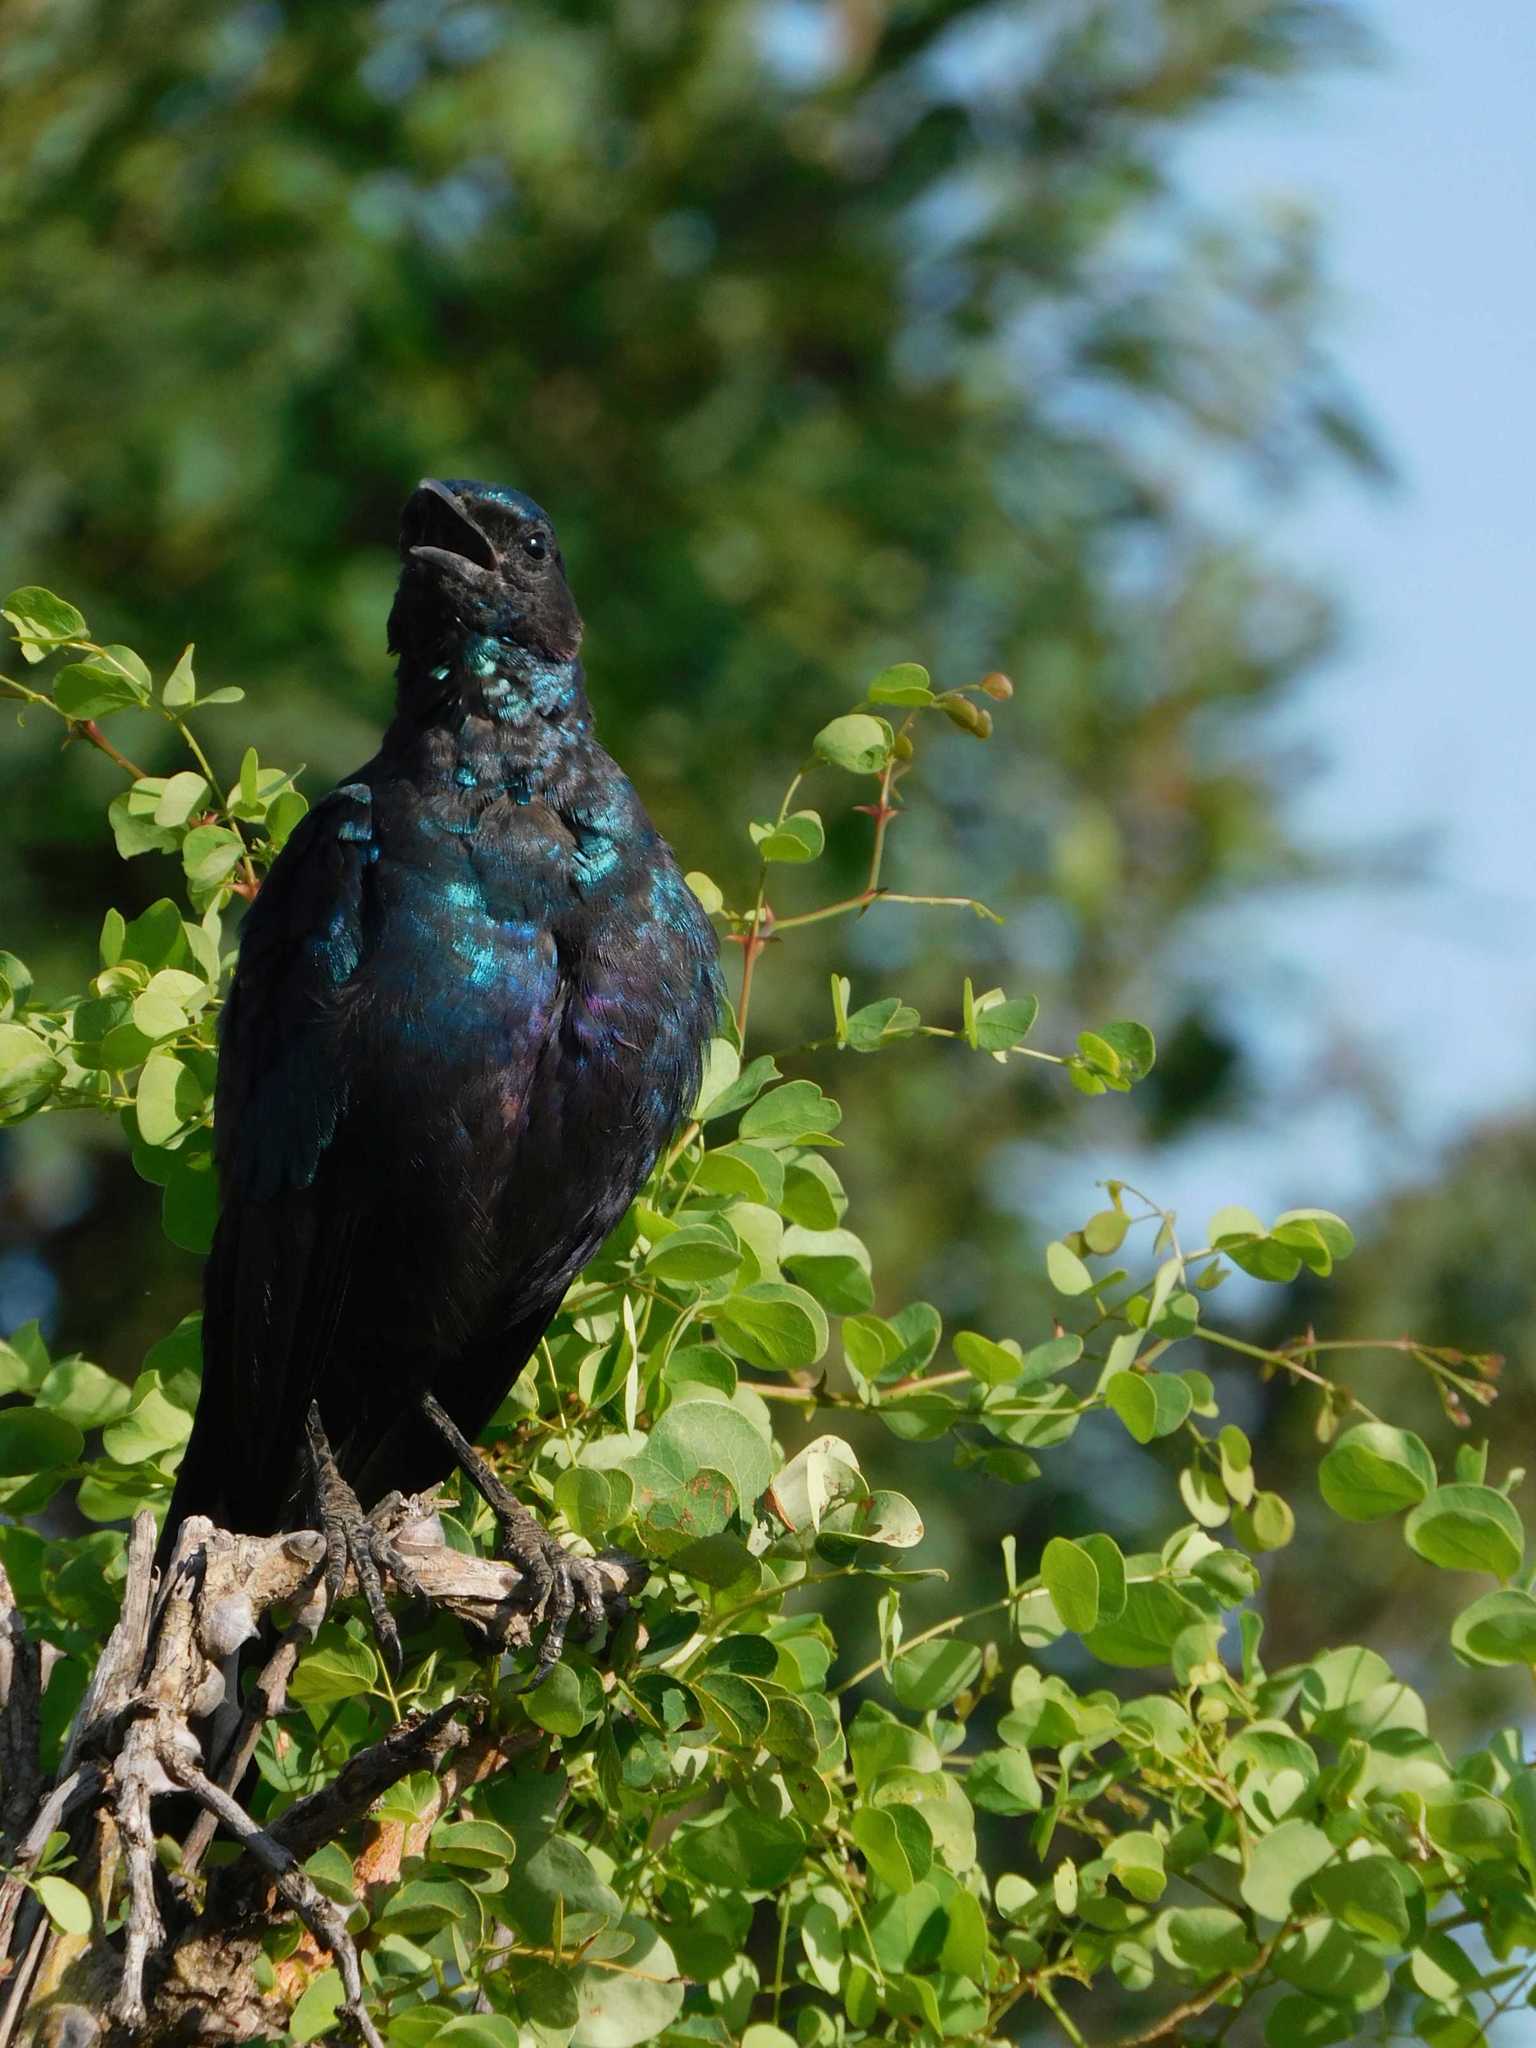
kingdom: Animalia
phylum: Chordata
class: Aves
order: Passeriformes
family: Sturnidae
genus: Lamprotornis
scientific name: Lamprotornis australis
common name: Burchell's starling
